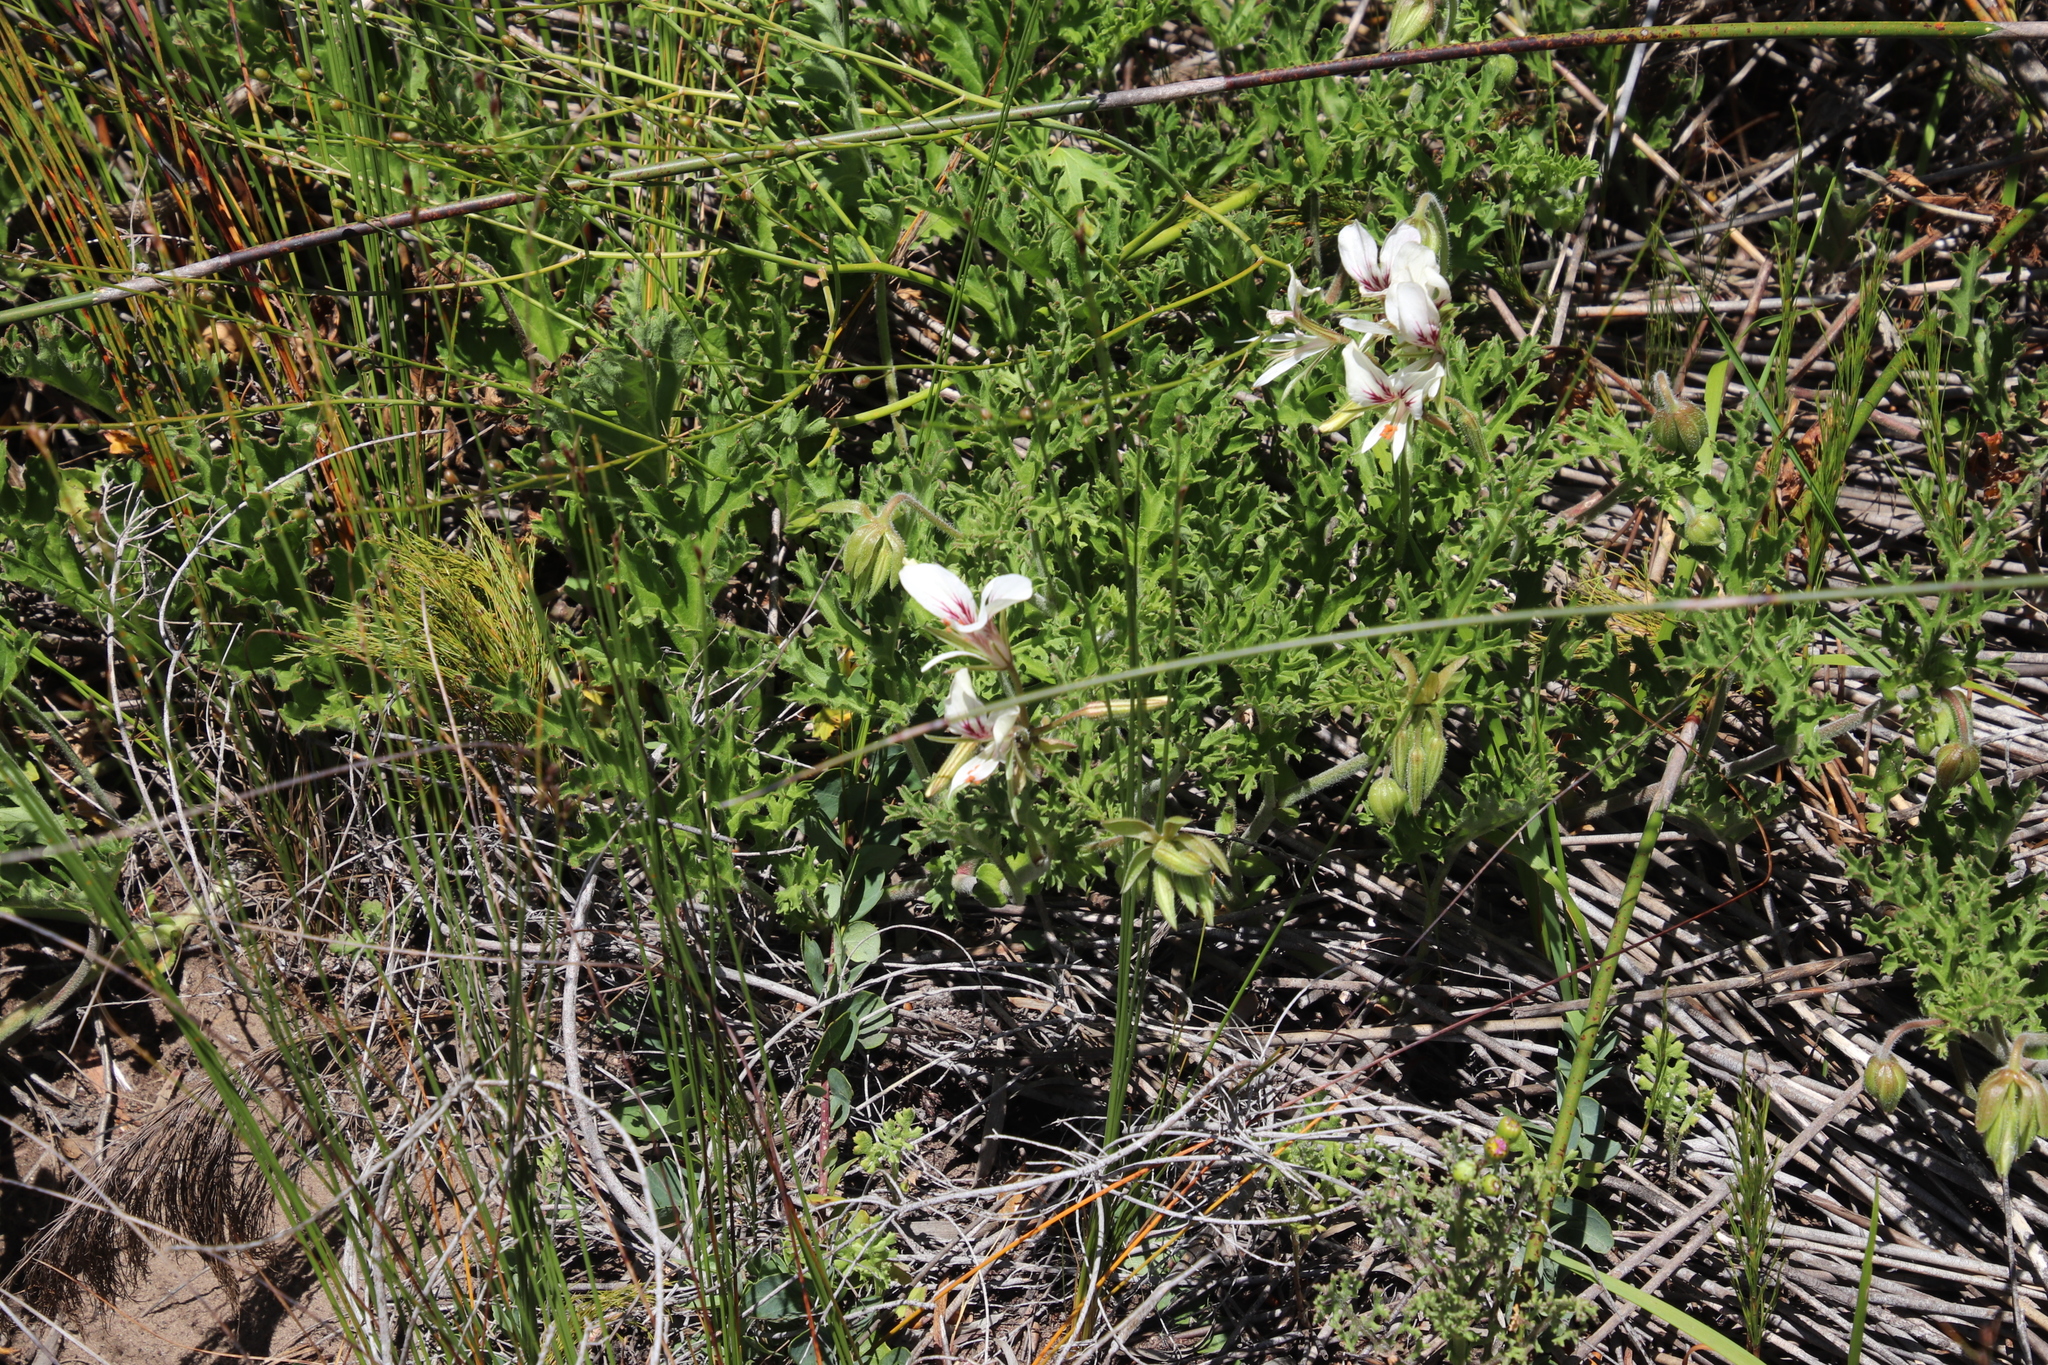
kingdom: Plantae
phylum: Tracheophyta
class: Magnoliopsida
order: Geraniales
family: Geraniaceae
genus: Pelargonium
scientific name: Pelargonium suburbanum
